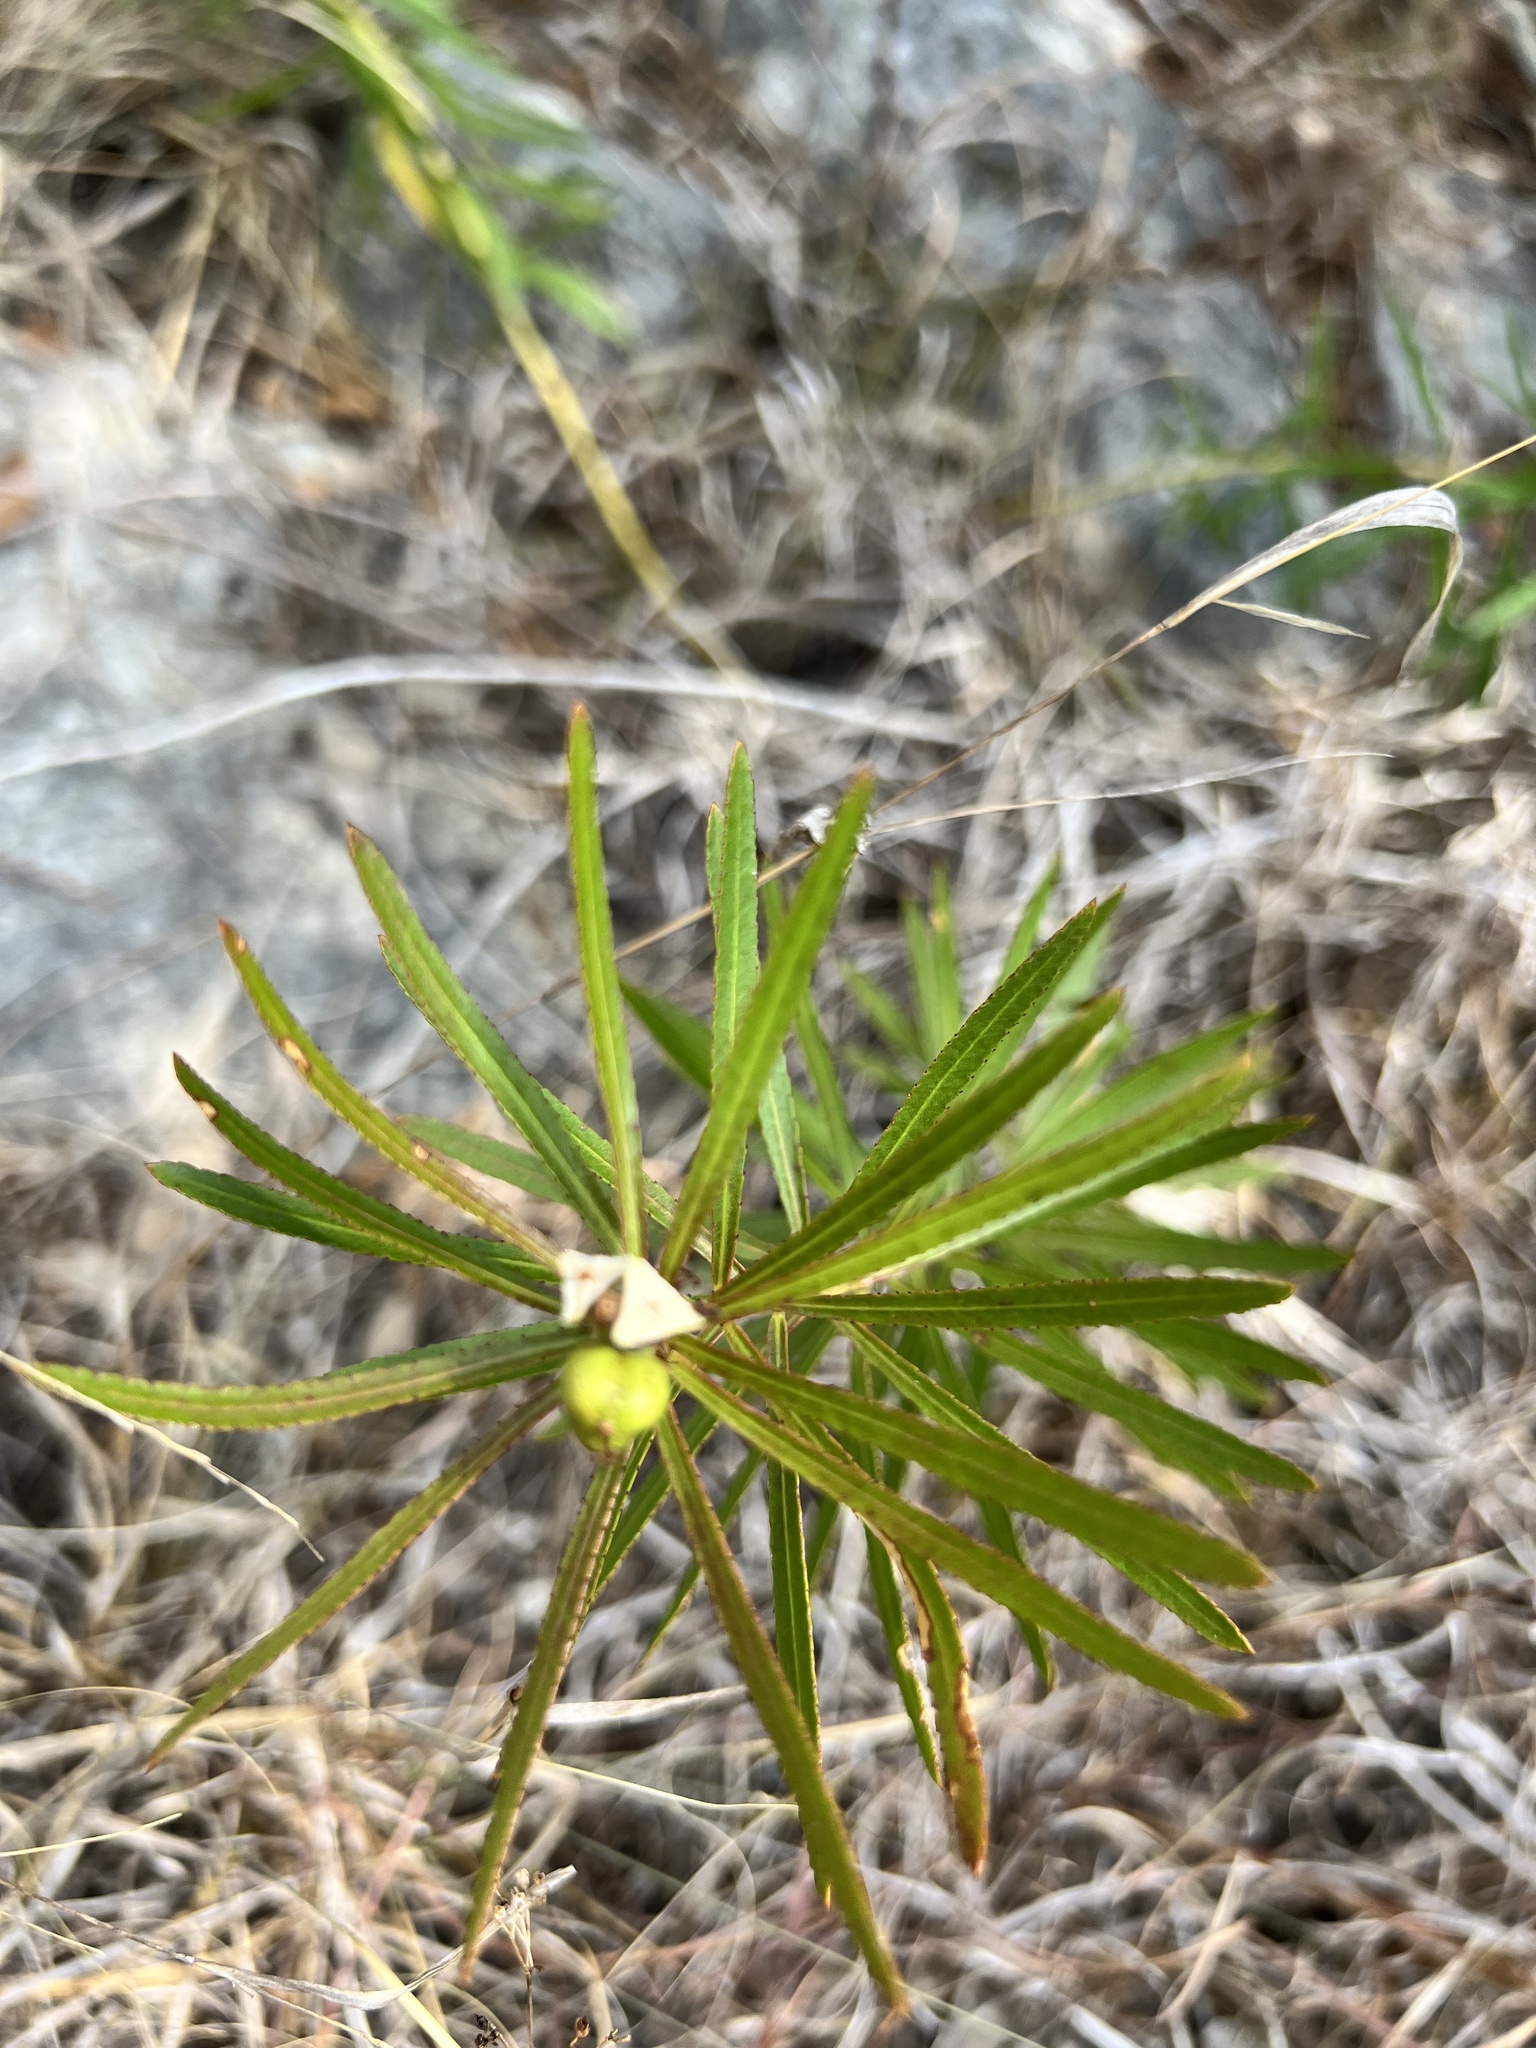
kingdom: Plantae
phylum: Tracheophyta
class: Magnoliopsida
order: Malpighiales
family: Euphorbiaceae
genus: Stillingia
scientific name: Stillingia texana
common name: Texas stillingia
